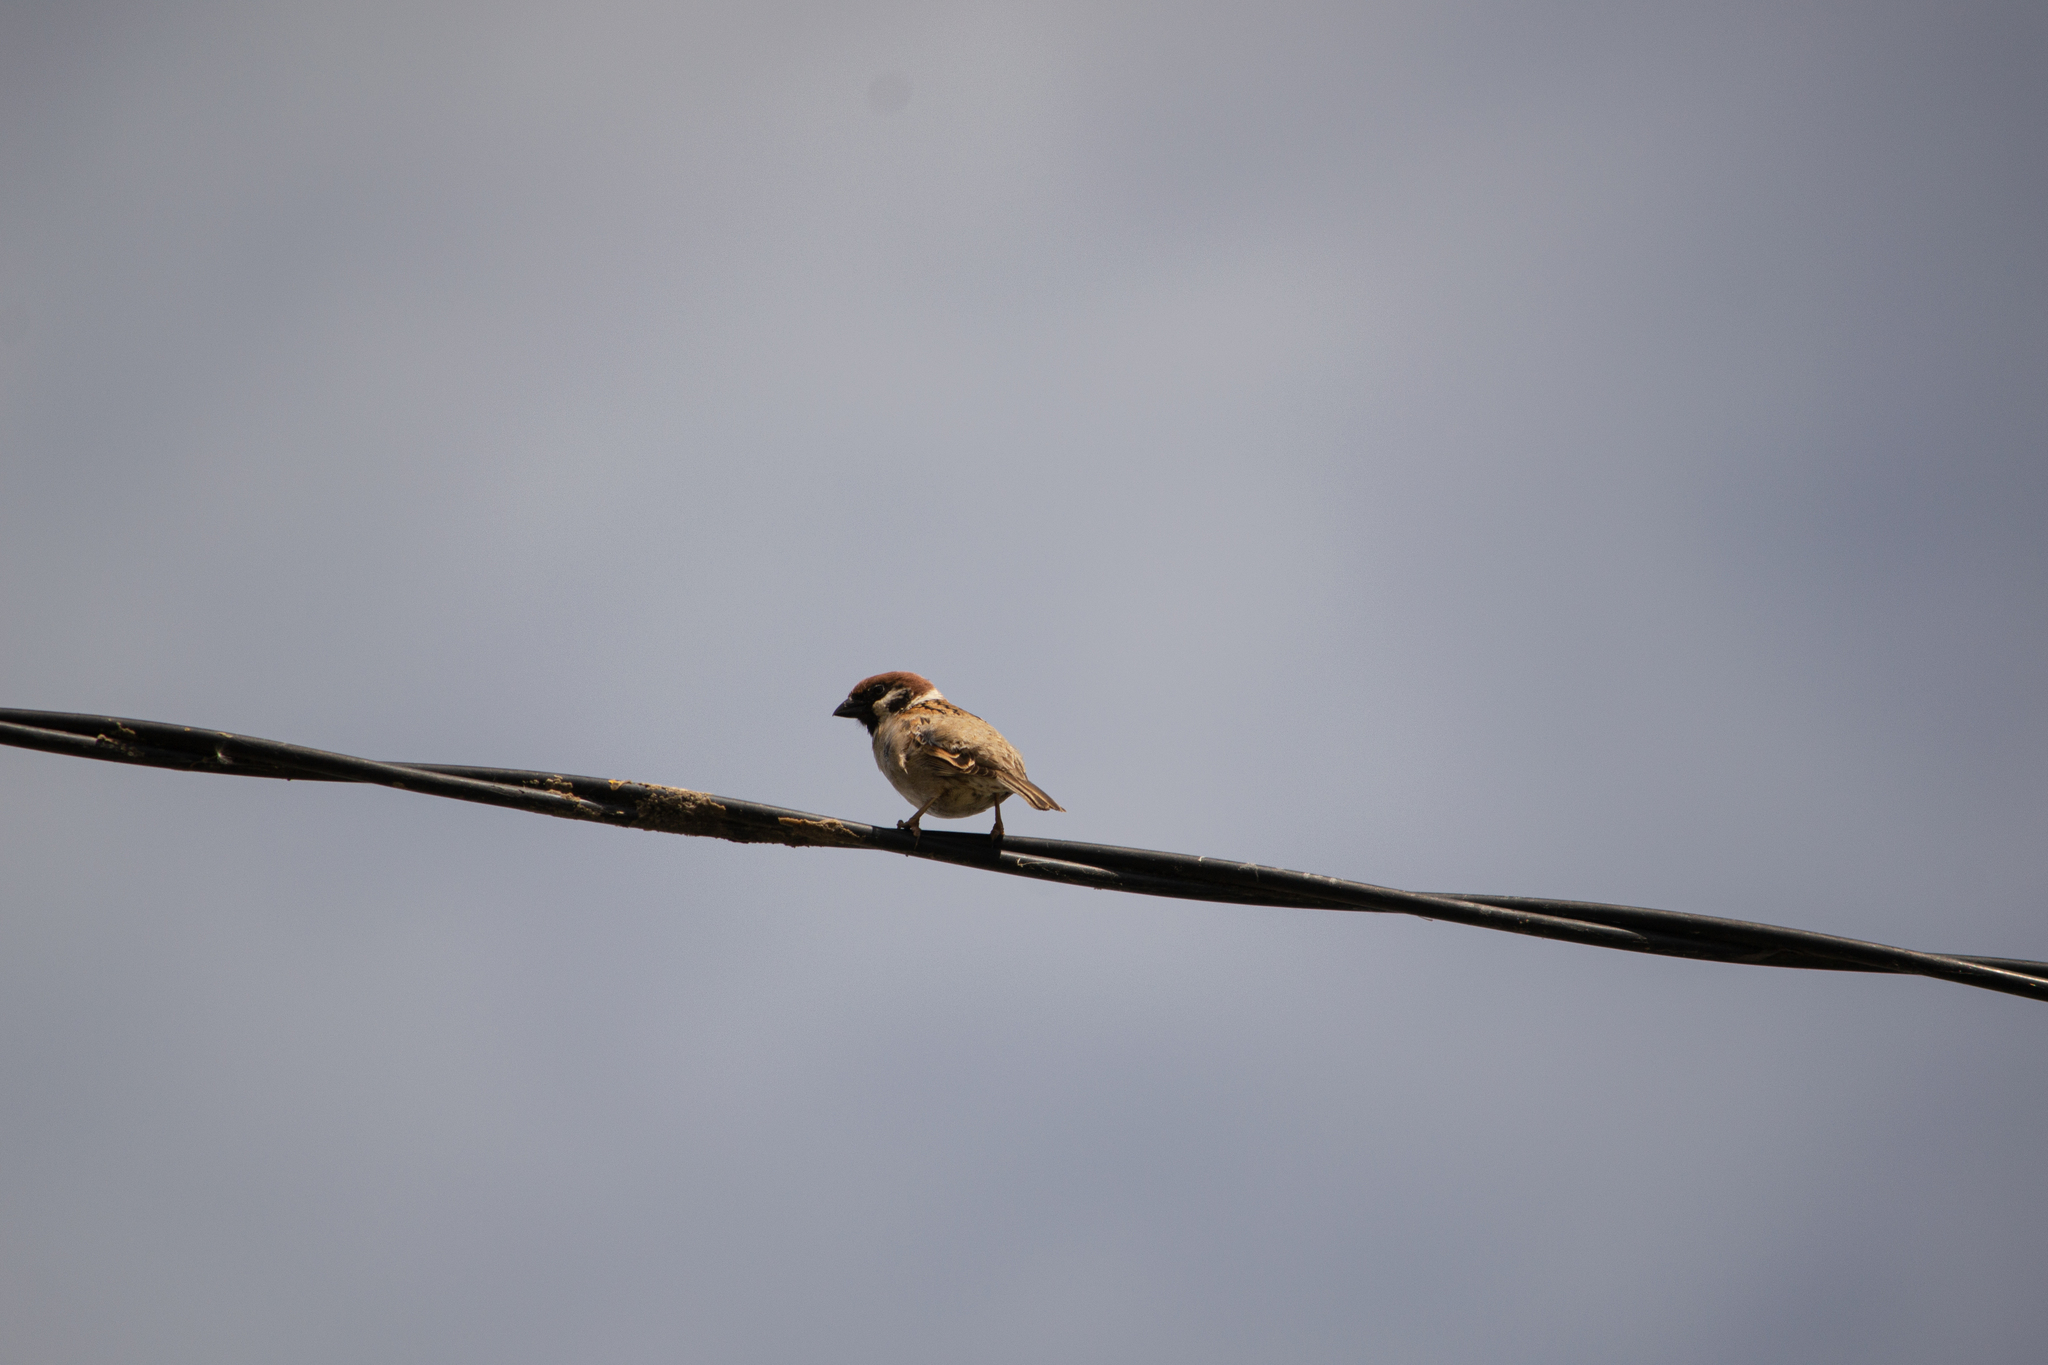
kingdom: Animalia
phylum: Chordata
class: Aves
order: Passeriformes
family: Passeridae
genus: Passer
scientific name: Passer montanus
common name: Eurasian tree sparrow
